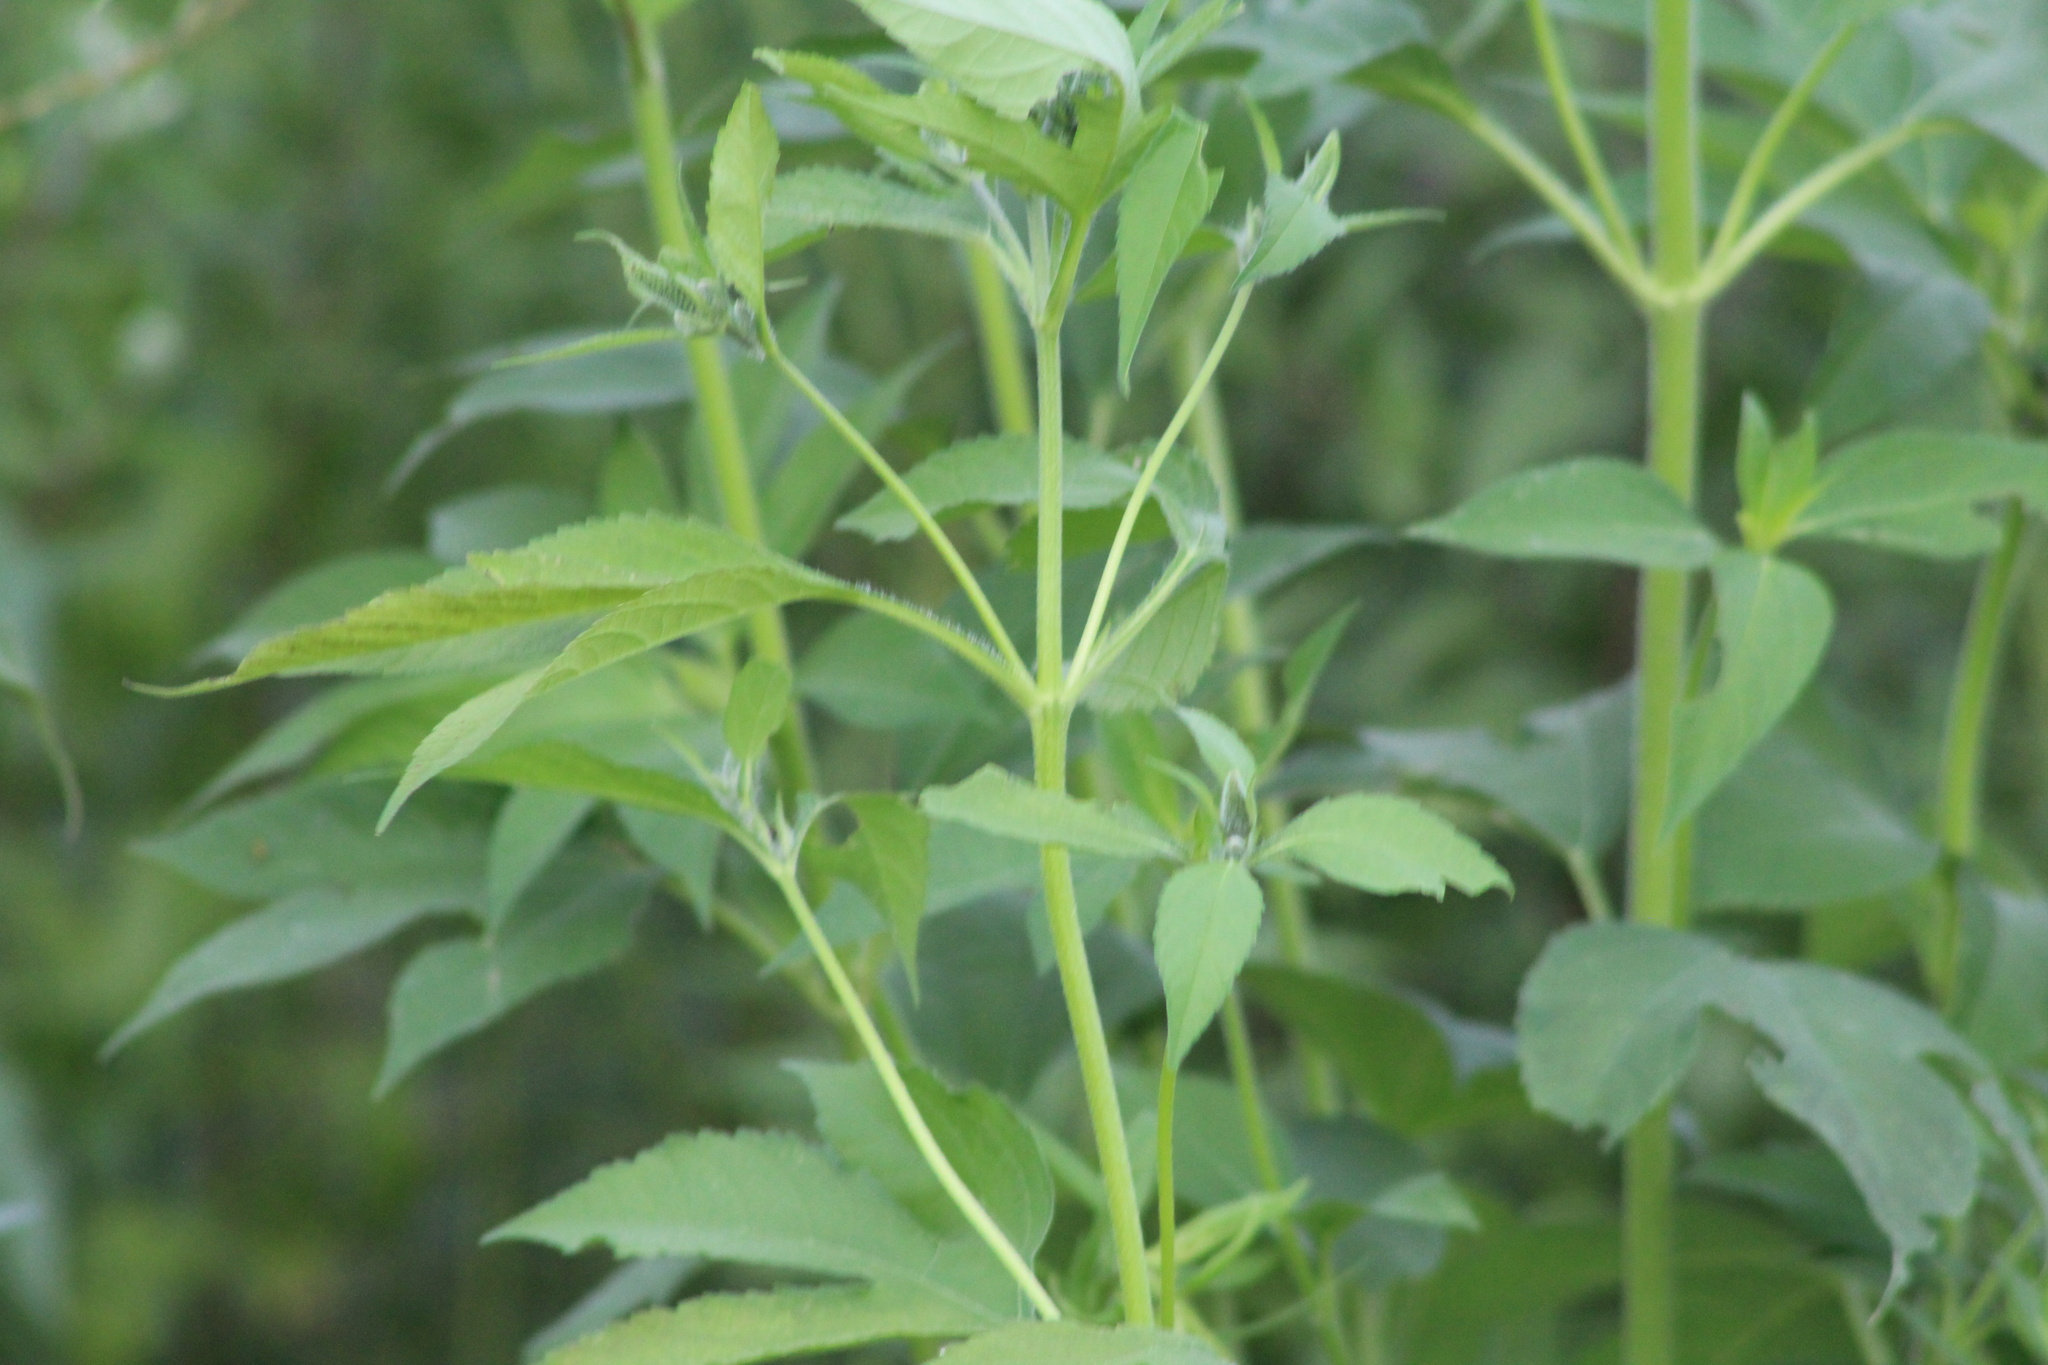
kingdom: Plantae
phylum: Tracheophyta
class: Magnoliopsida
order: Asterales
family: Asteraceae
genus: Ambrosia
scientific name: Ambrosia trifida
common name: Giant ragweed
